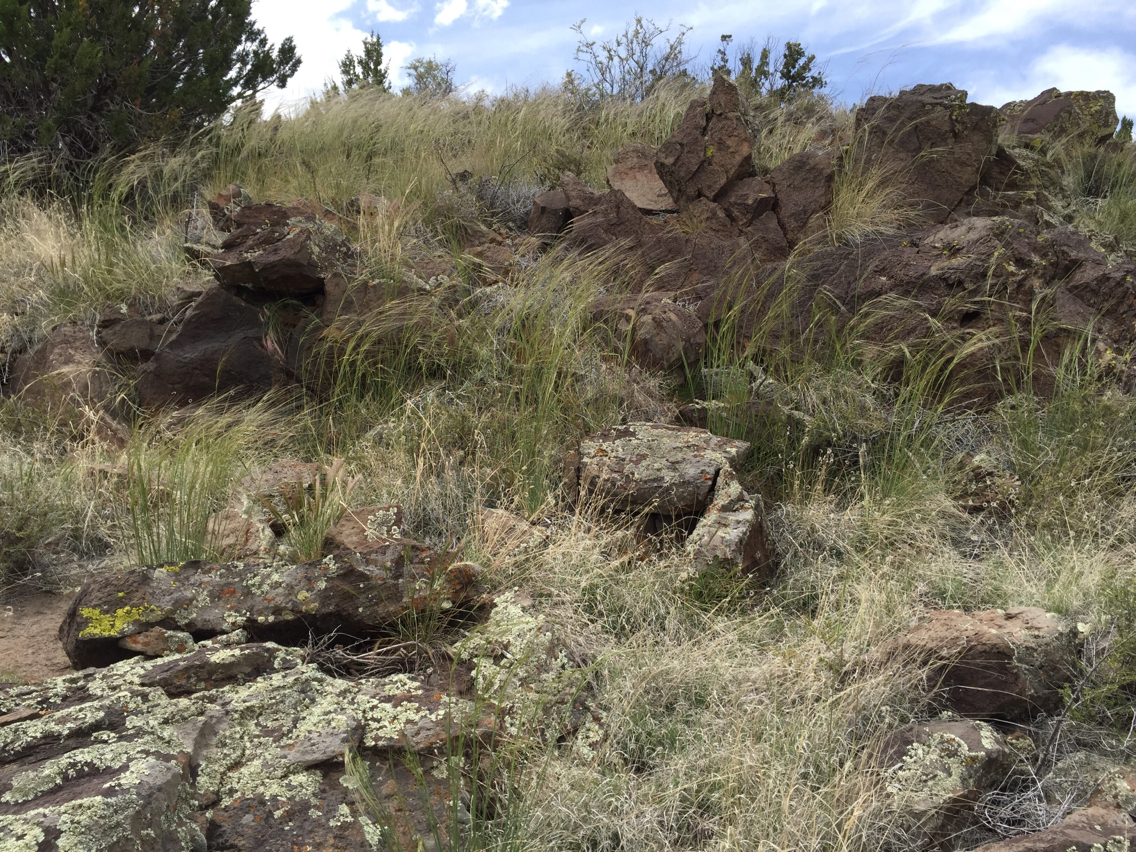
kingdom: Plantae
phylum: Tracheophyta
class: Liliopsida
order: Poales
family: Poaceae
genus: Hesperostipa
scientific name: Hesperostipa neomexicana
